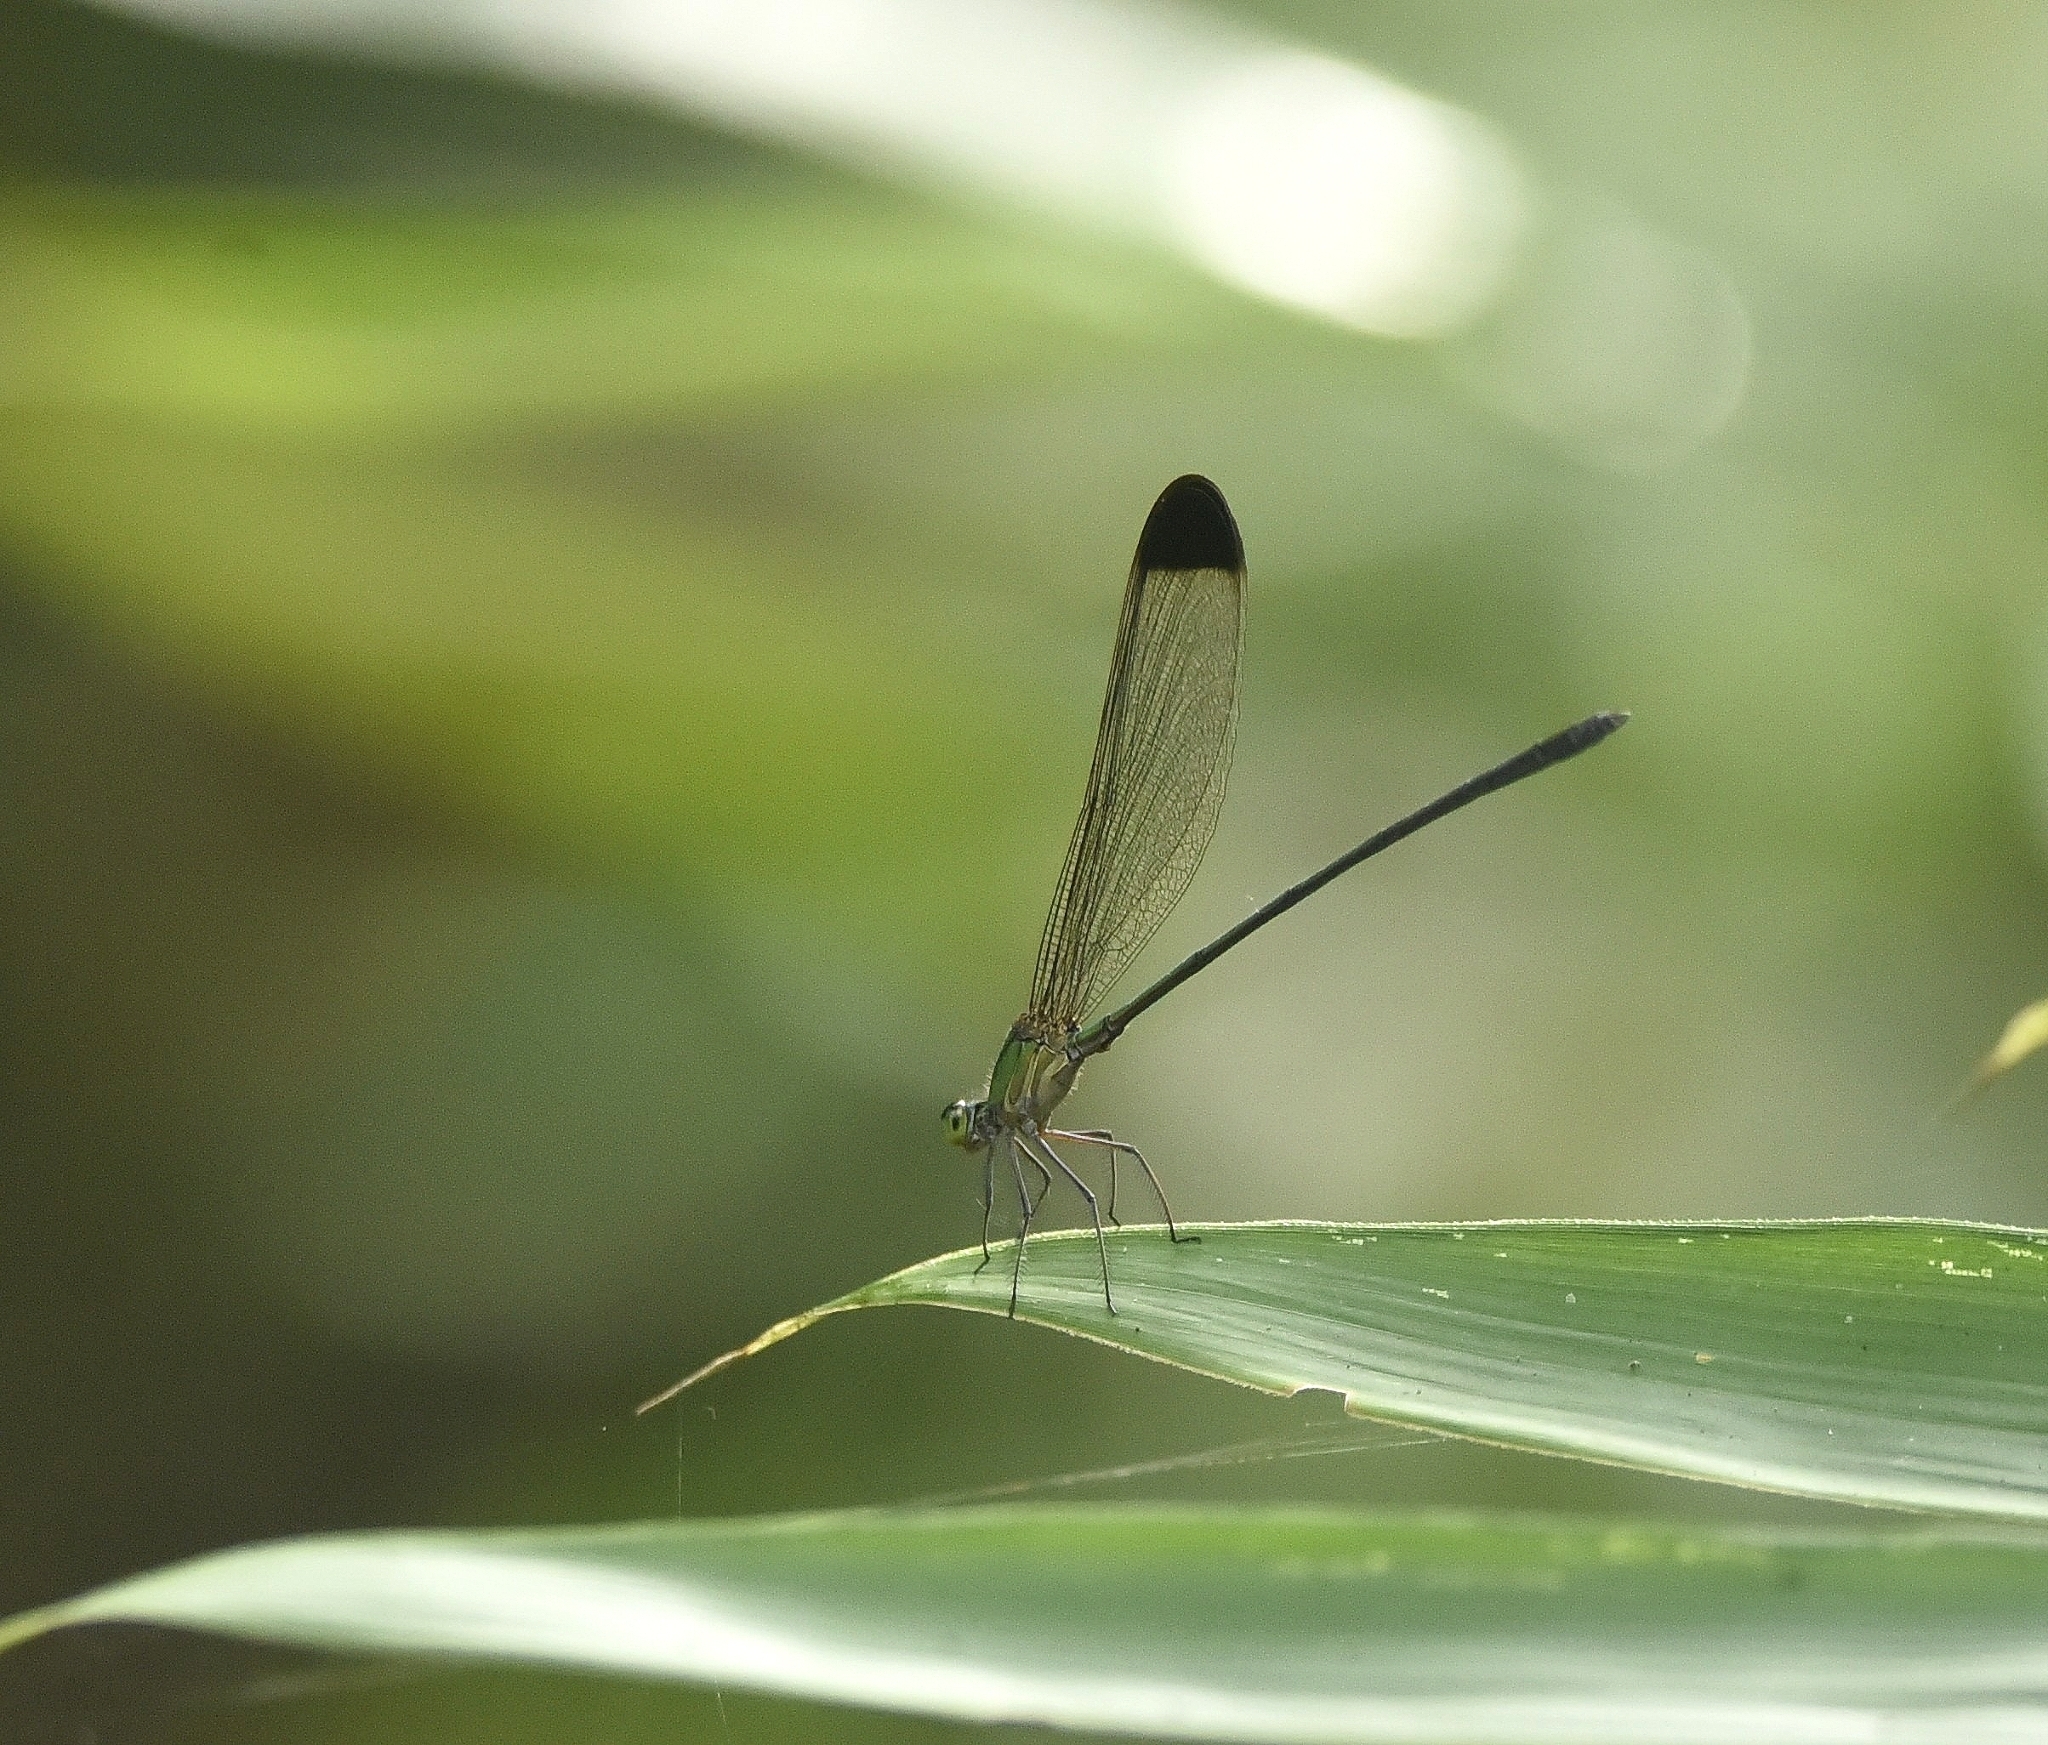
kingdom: Animalia
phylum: Arthropoda
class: Insecta
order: Odonata
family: Calopterygidae
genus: Vestalis
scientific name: Vestalis apicalis
